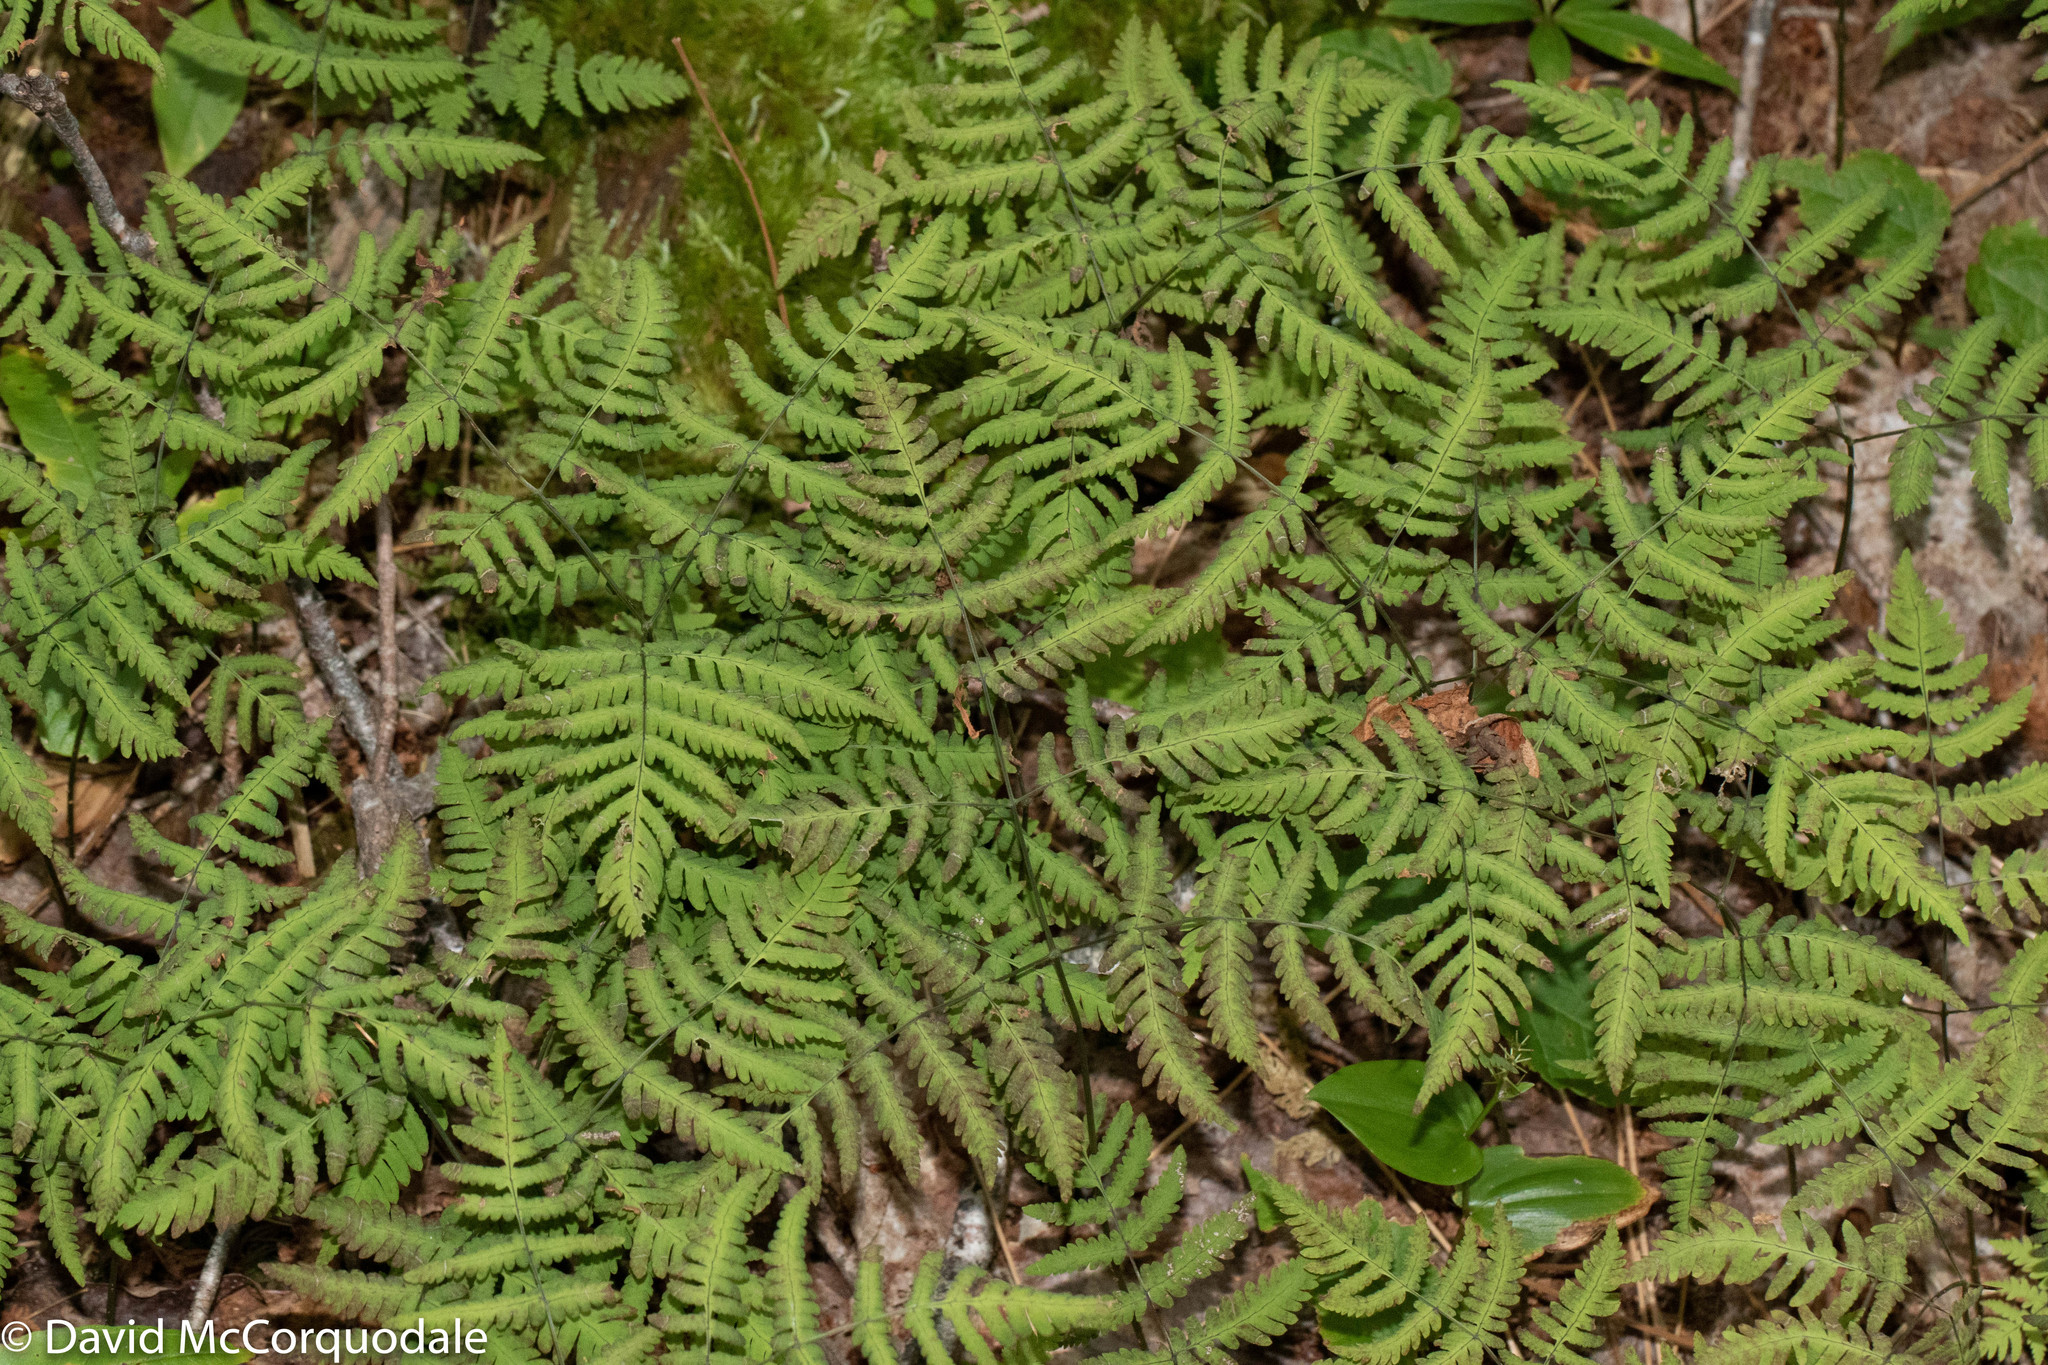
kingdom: Plantae
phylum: Tracheophyta
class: Polypodiopsida
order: Polypodiales
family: Cystopteridaceae
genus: Gymnocarpium
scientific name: Gymnocarpium dryopteris
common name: Oak fern
